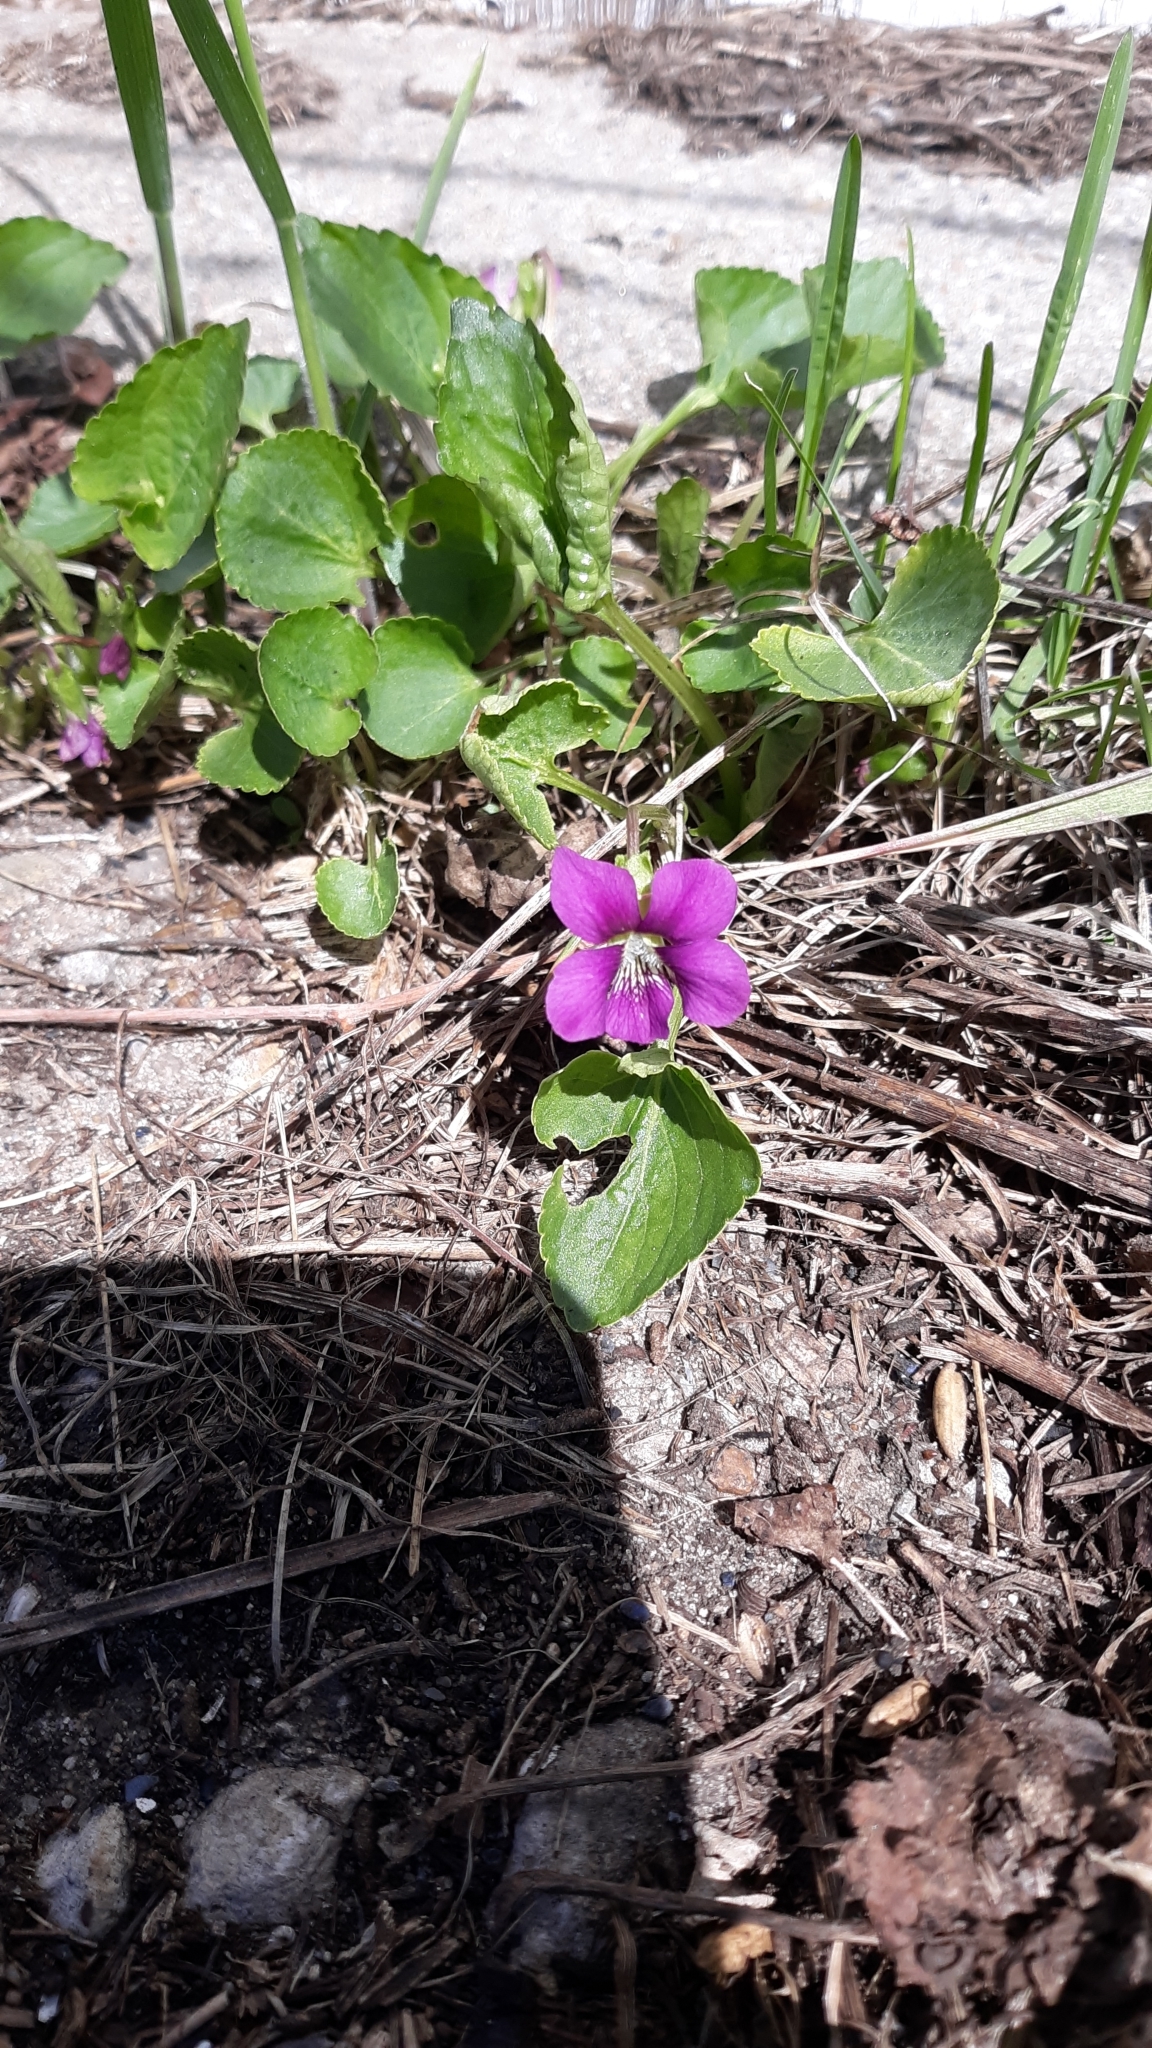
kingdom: Plantae
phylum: Tracheophyta
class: Magnoliopsida
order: Malpighiales
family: Violaceae
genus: Viola
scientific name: Viola sororia
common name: Dooryard violet
